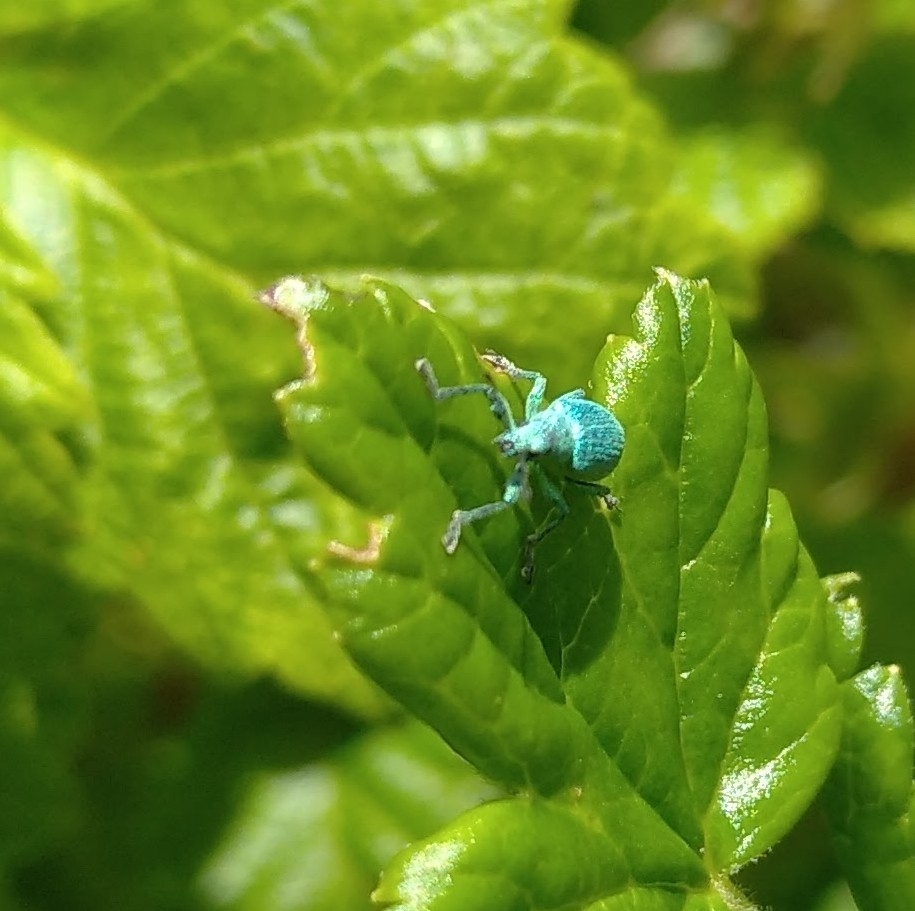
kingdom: Animalia
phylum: Arthropoda
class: Insecta
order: Coleoptera
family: Curculionidae
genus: Phyllobius
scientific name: Phyllobius pomaceus
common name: Green nettle weevil
